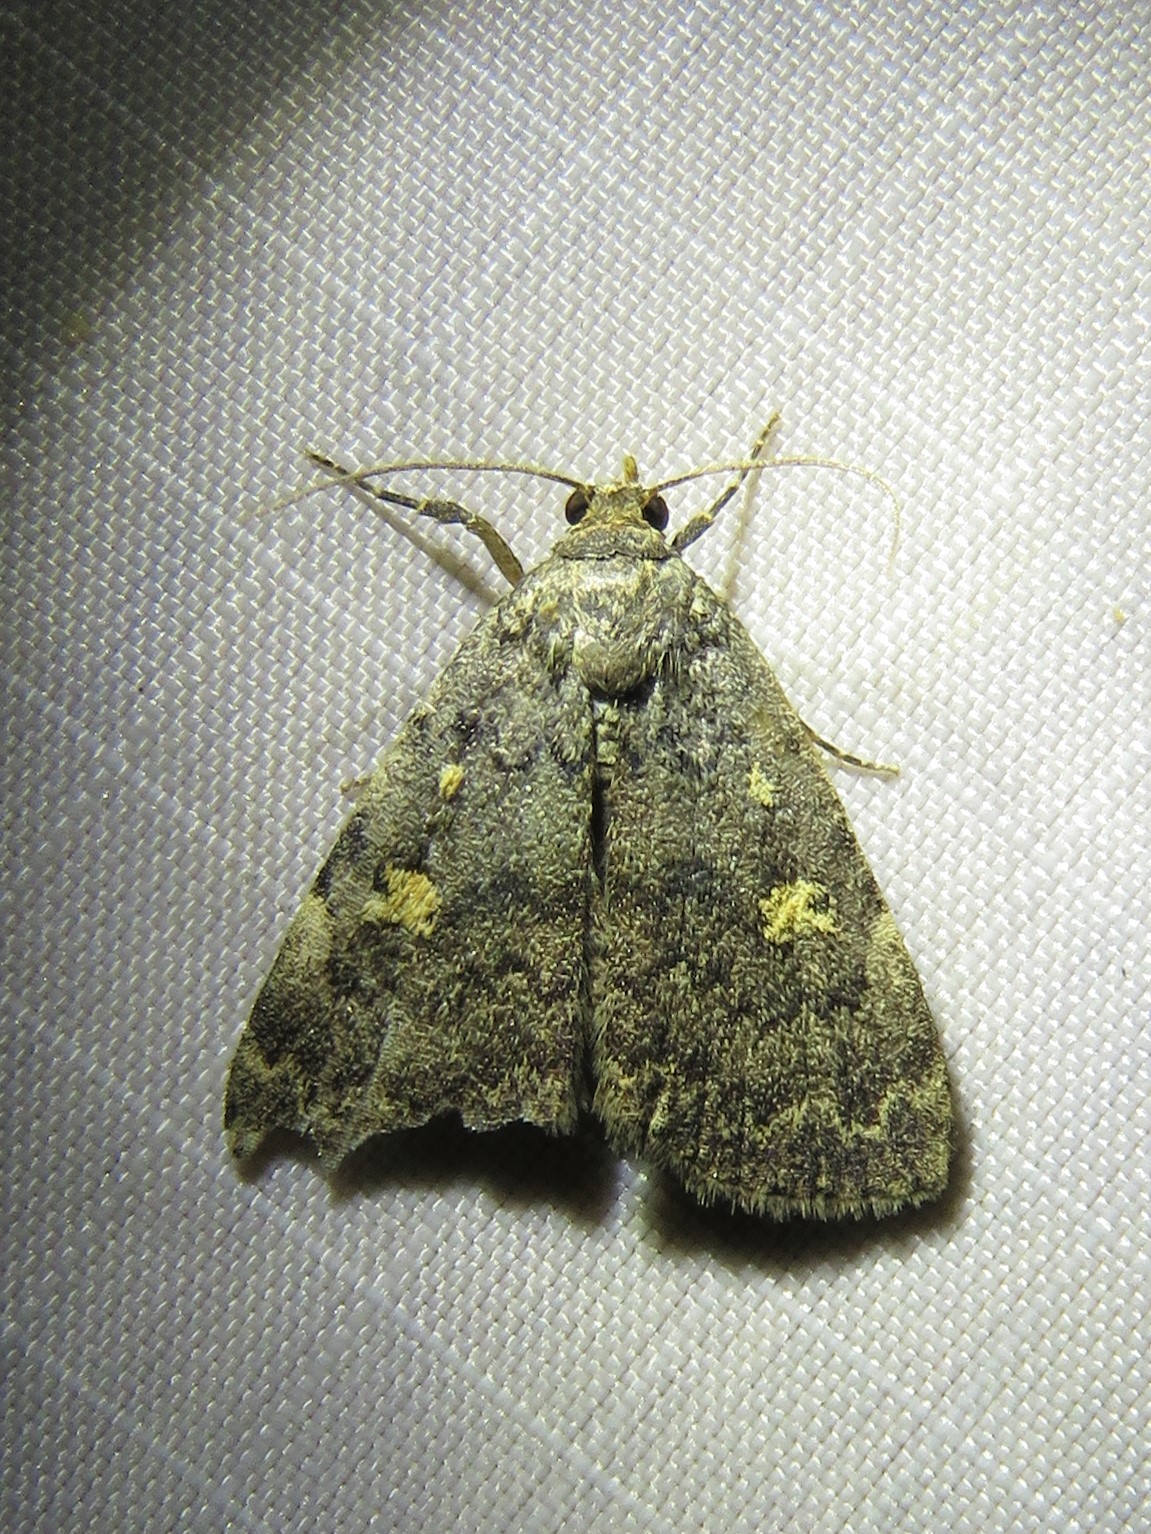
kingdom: Animalia
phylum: Arthropoda
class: Insecta
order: Lepidoptera
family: Erebidae
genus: Idia
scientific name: Idia aemula
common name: Common idia moth
